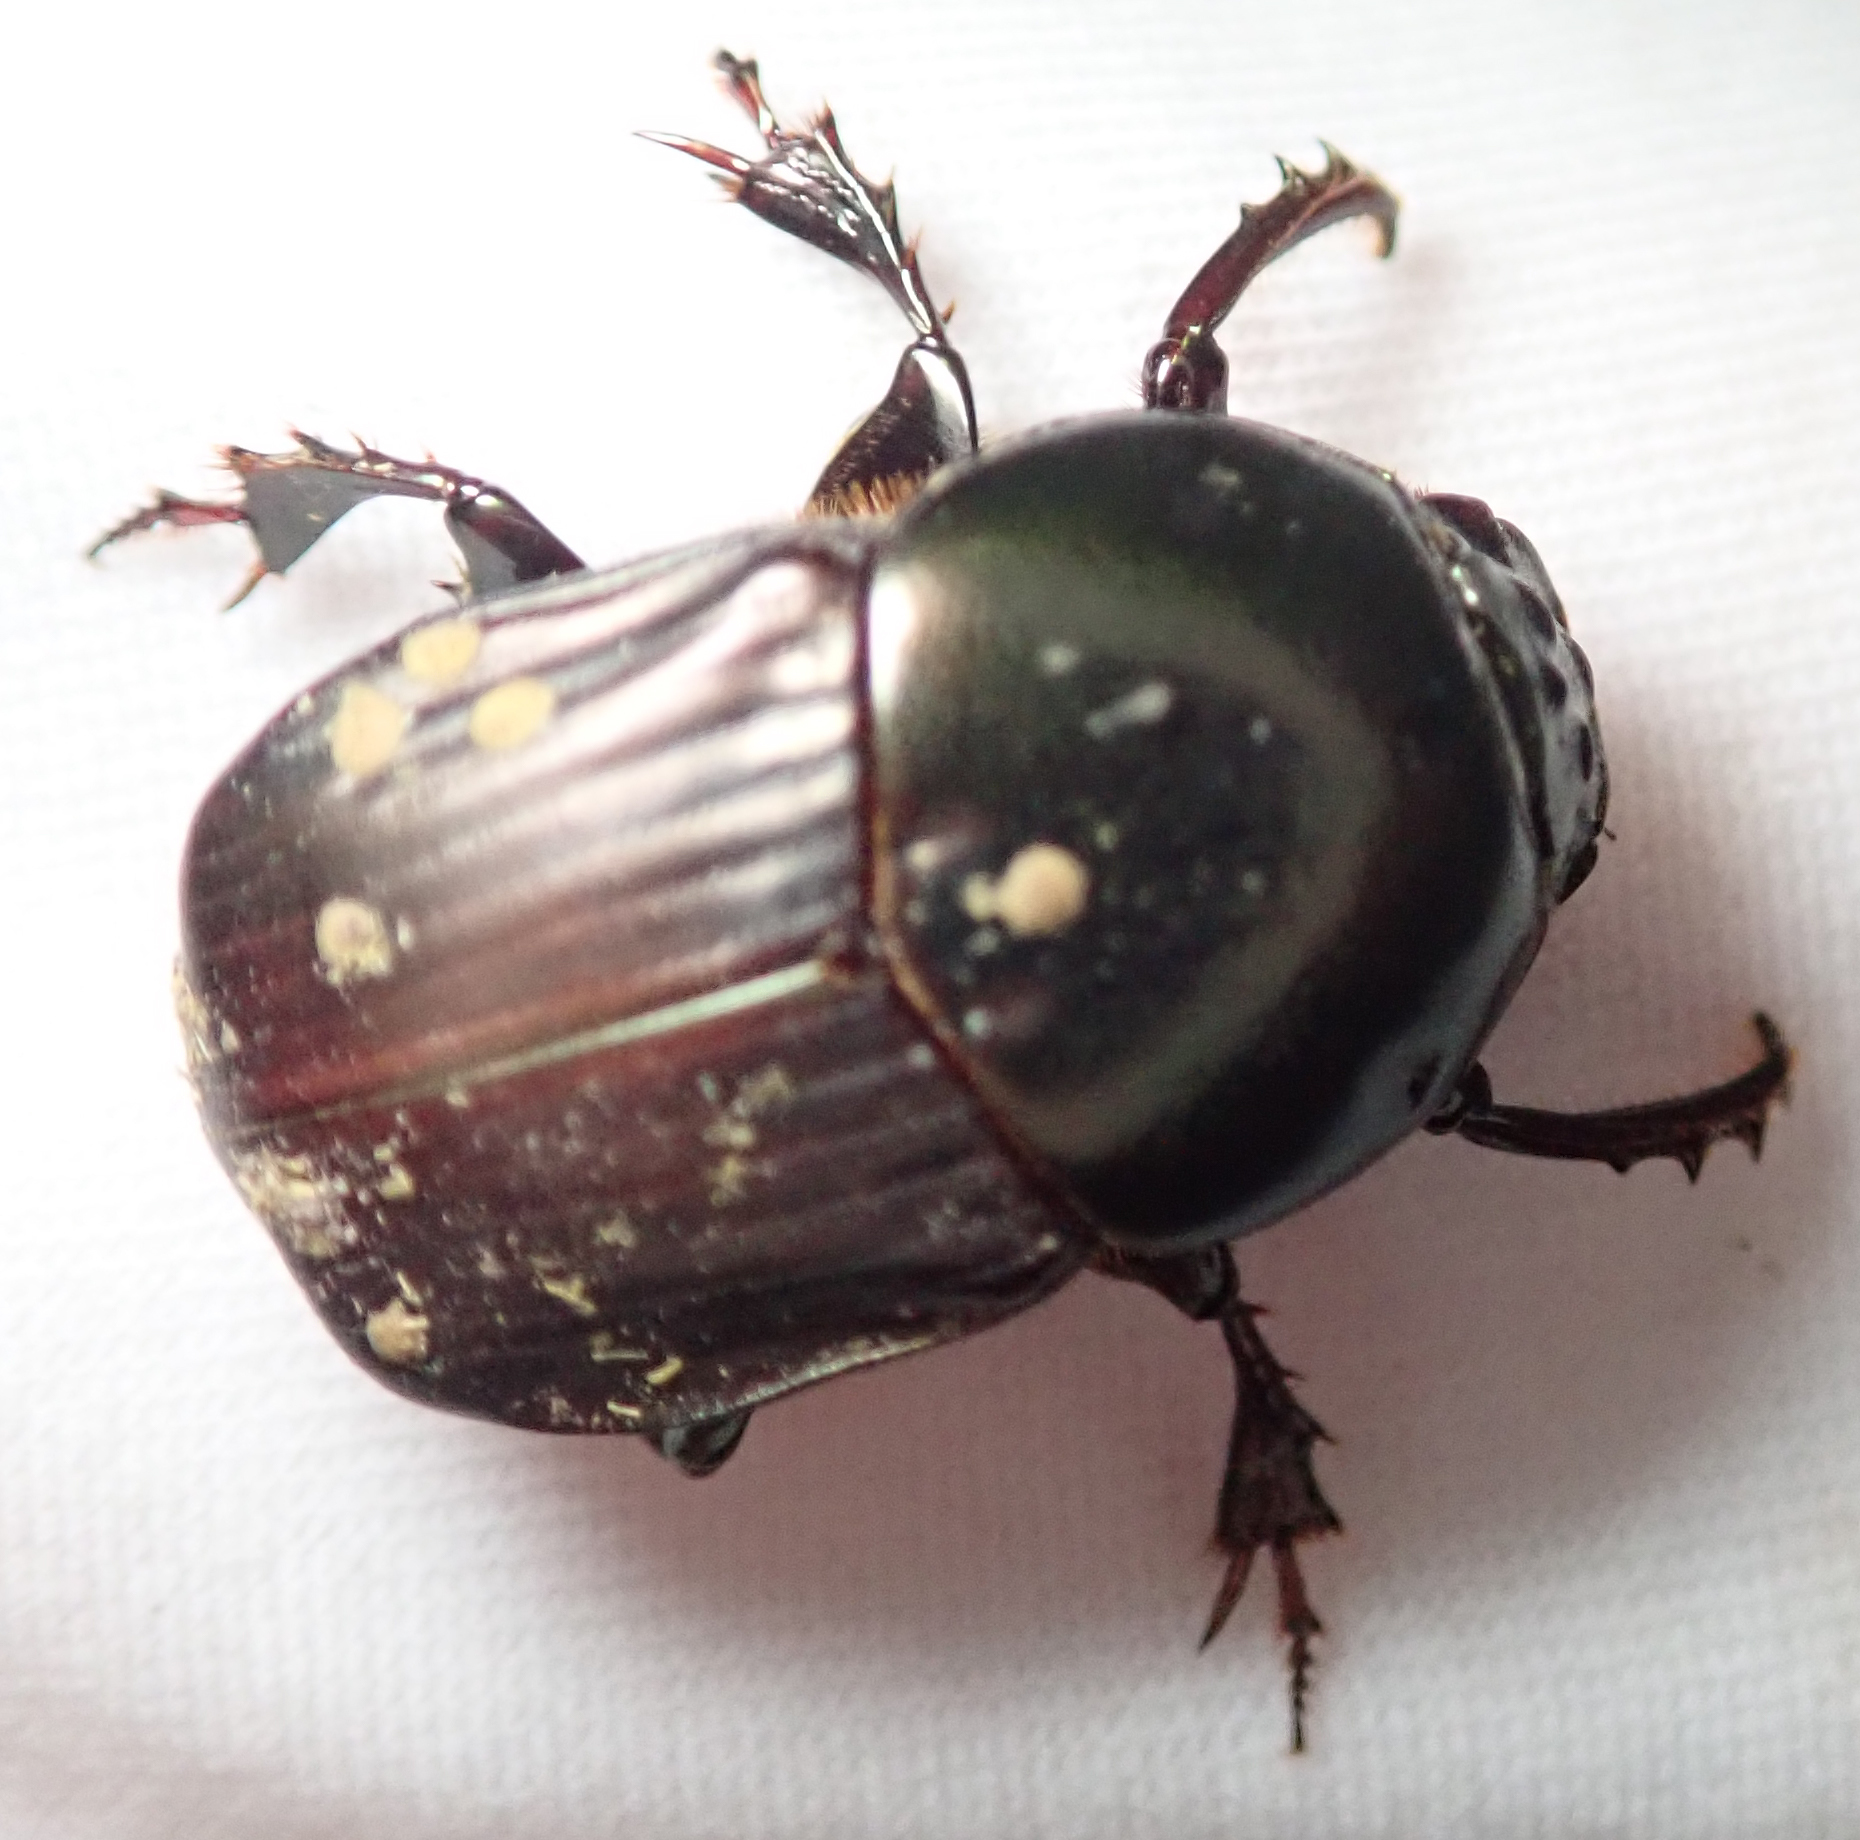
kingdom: Animalia
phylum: Arthropoda
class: Insecta
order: Coleoptera
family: Scarabaeidae
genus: Onitis
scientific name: Onitis alexis
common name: Alexis dung beetle
